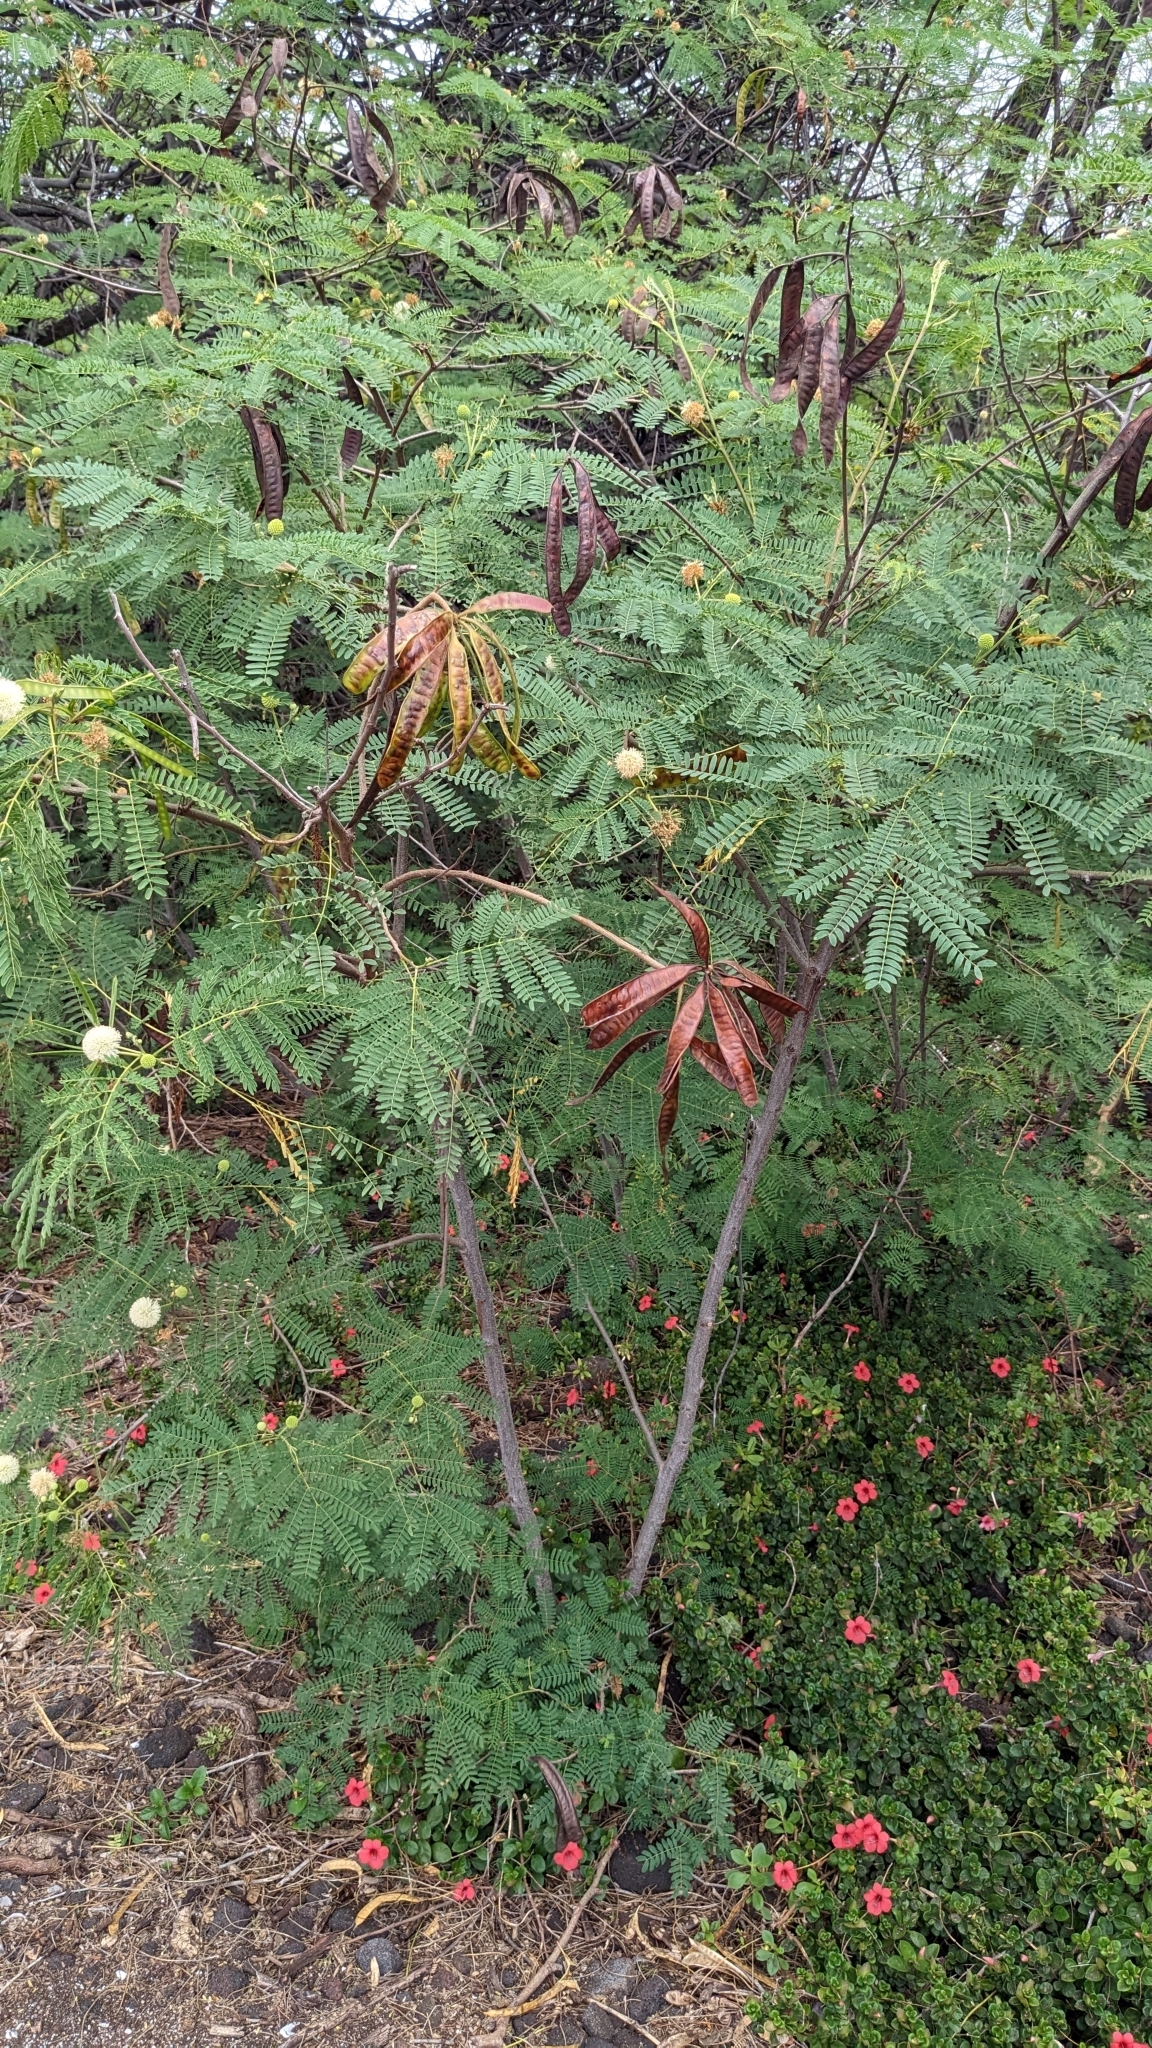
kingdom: Plantae
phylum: Tracheophyta
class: Magnoliopsida
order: Fabales
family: Fabaceae
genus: Leucaena
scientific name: Leucaena leucocephala
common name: White leadtree
